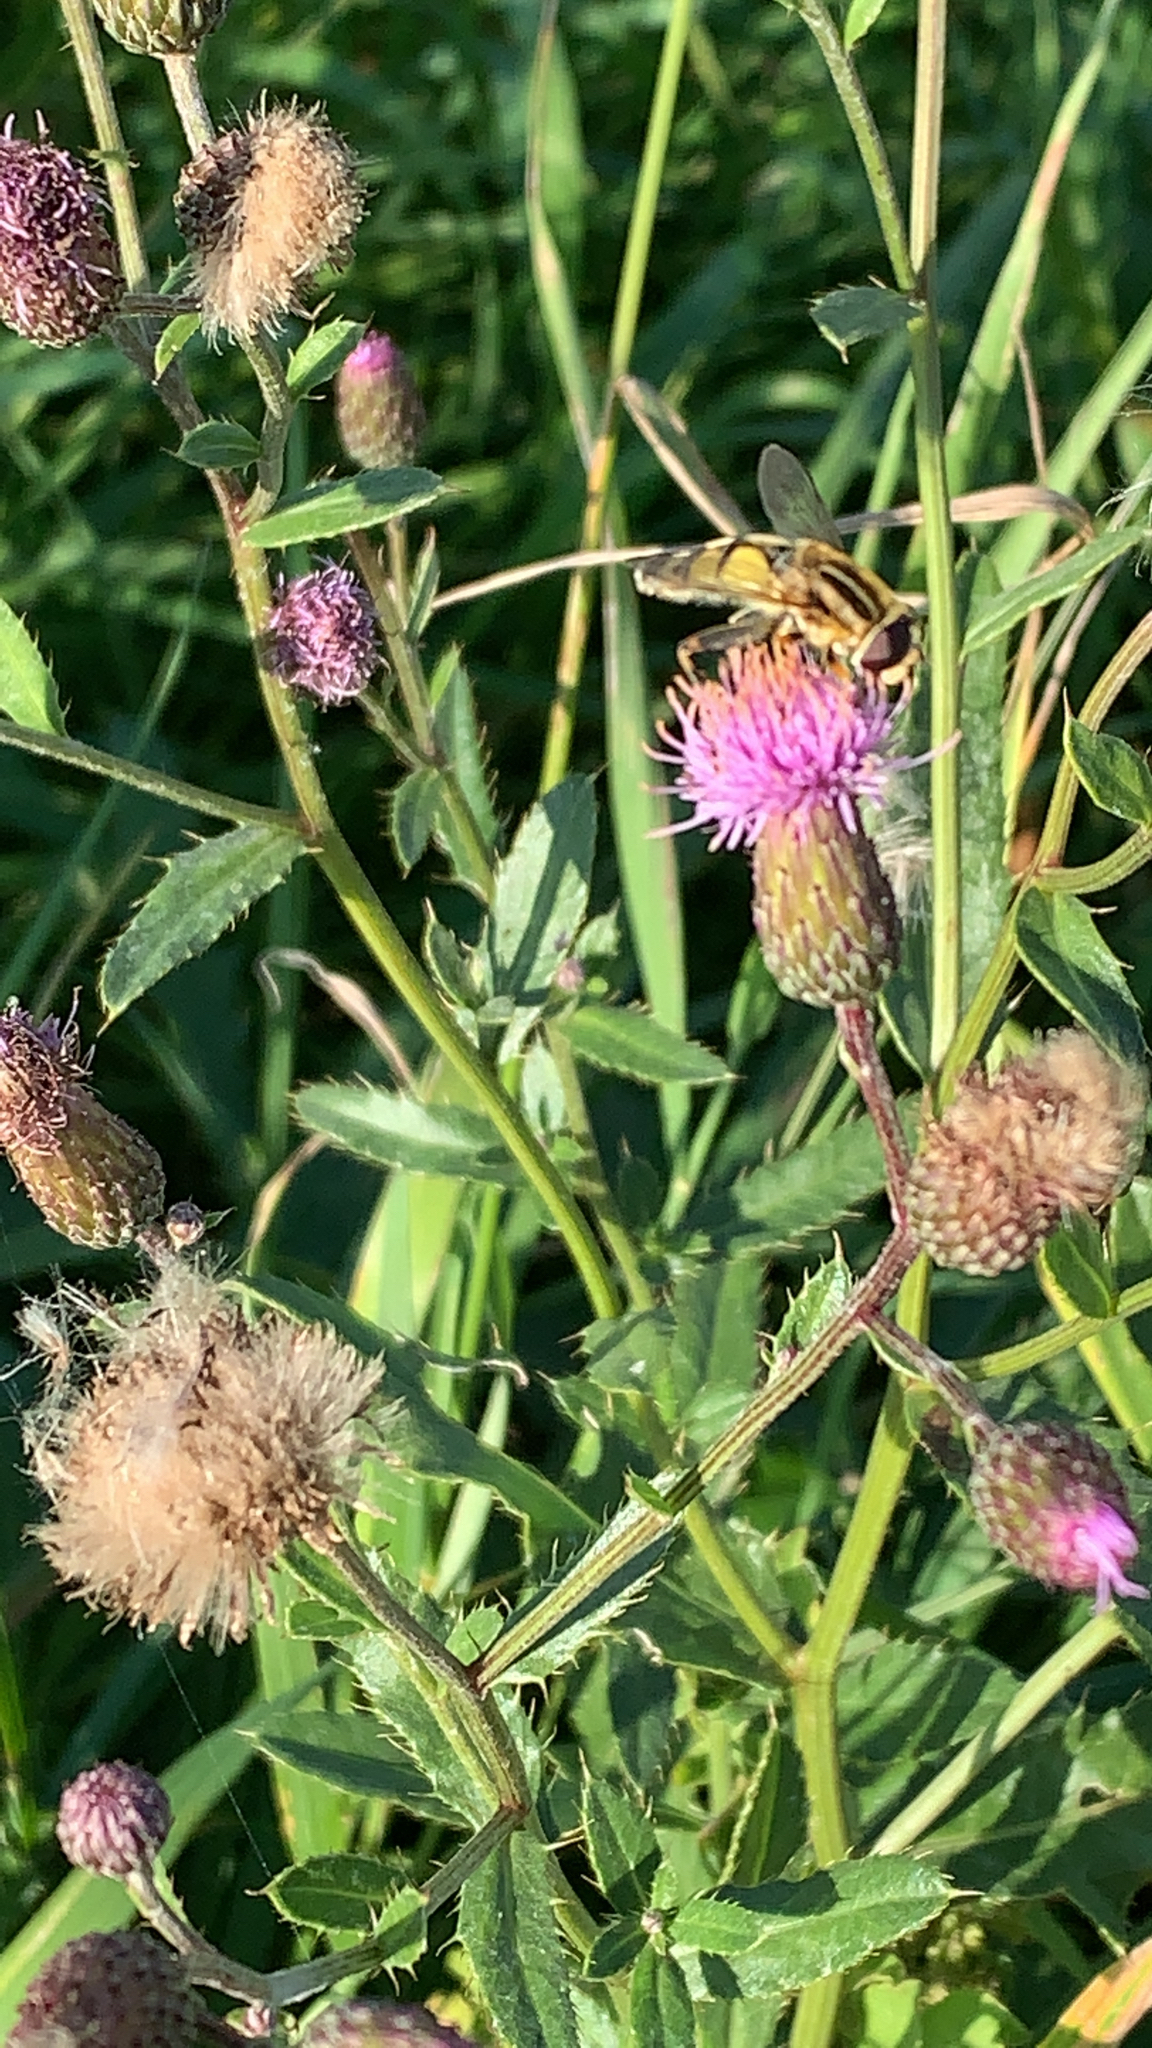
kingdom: Animalia
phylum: Arthropoda
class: Insecta
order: Diptera
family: Syrphidae
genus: Helophilus
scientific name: Helophilus trivittatus
